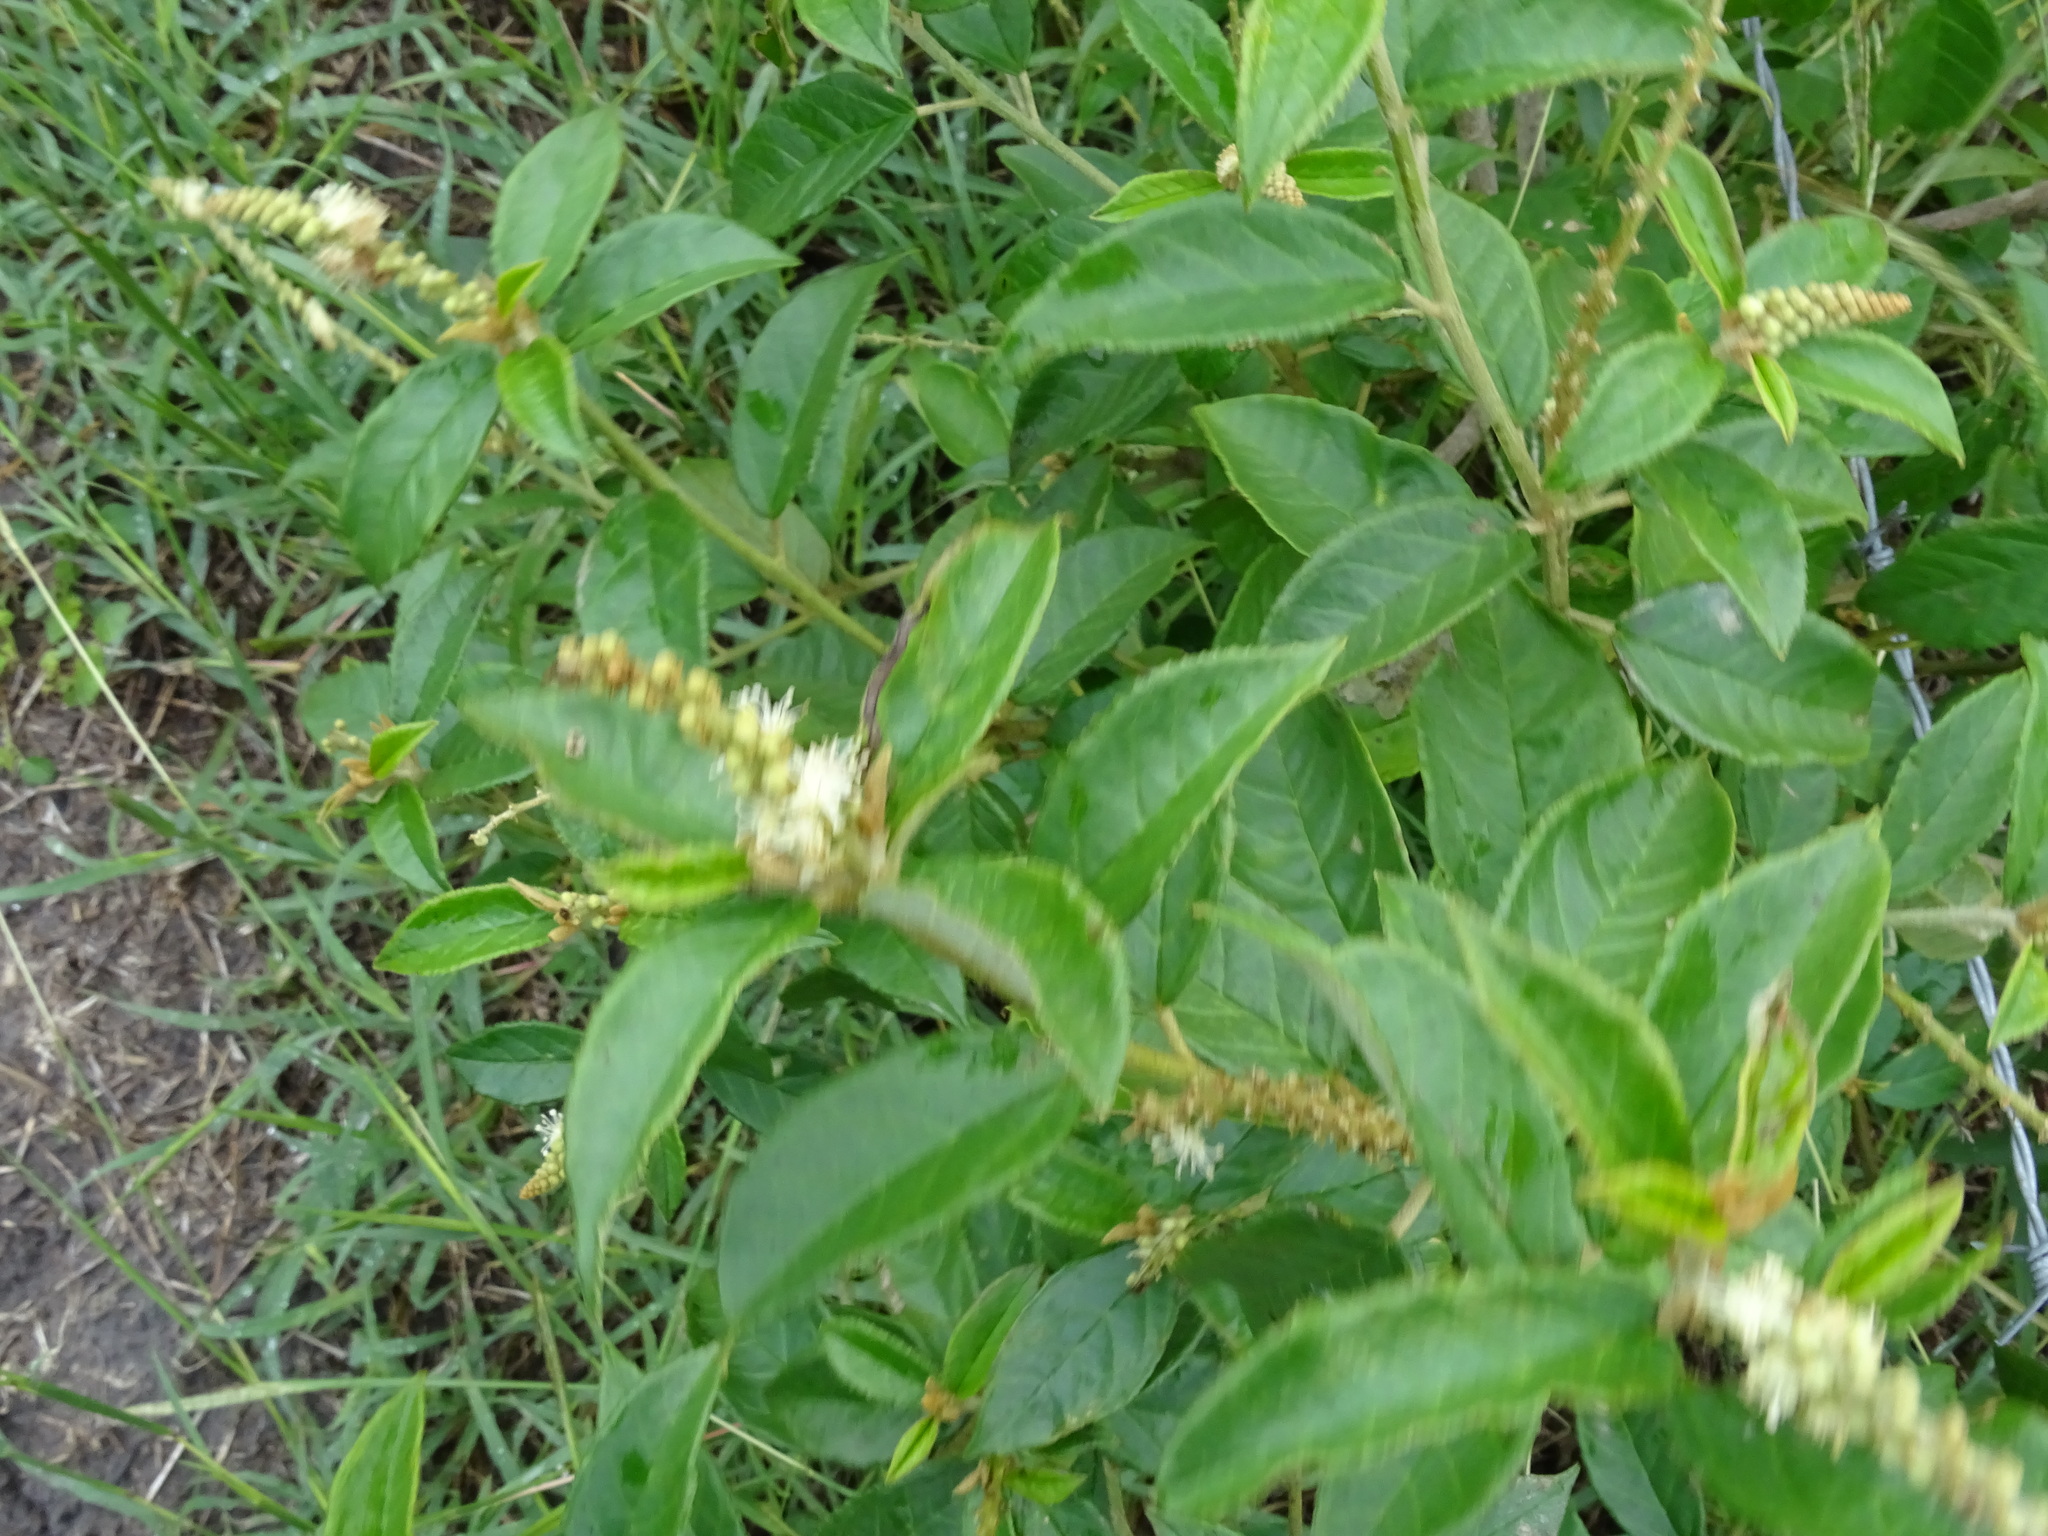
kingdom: Plantae
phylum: Tracheophyta
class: Magnoliopsida
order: Malpighiales
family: Euphorbiaceae
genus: Croton
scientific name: Croton cortesianus
